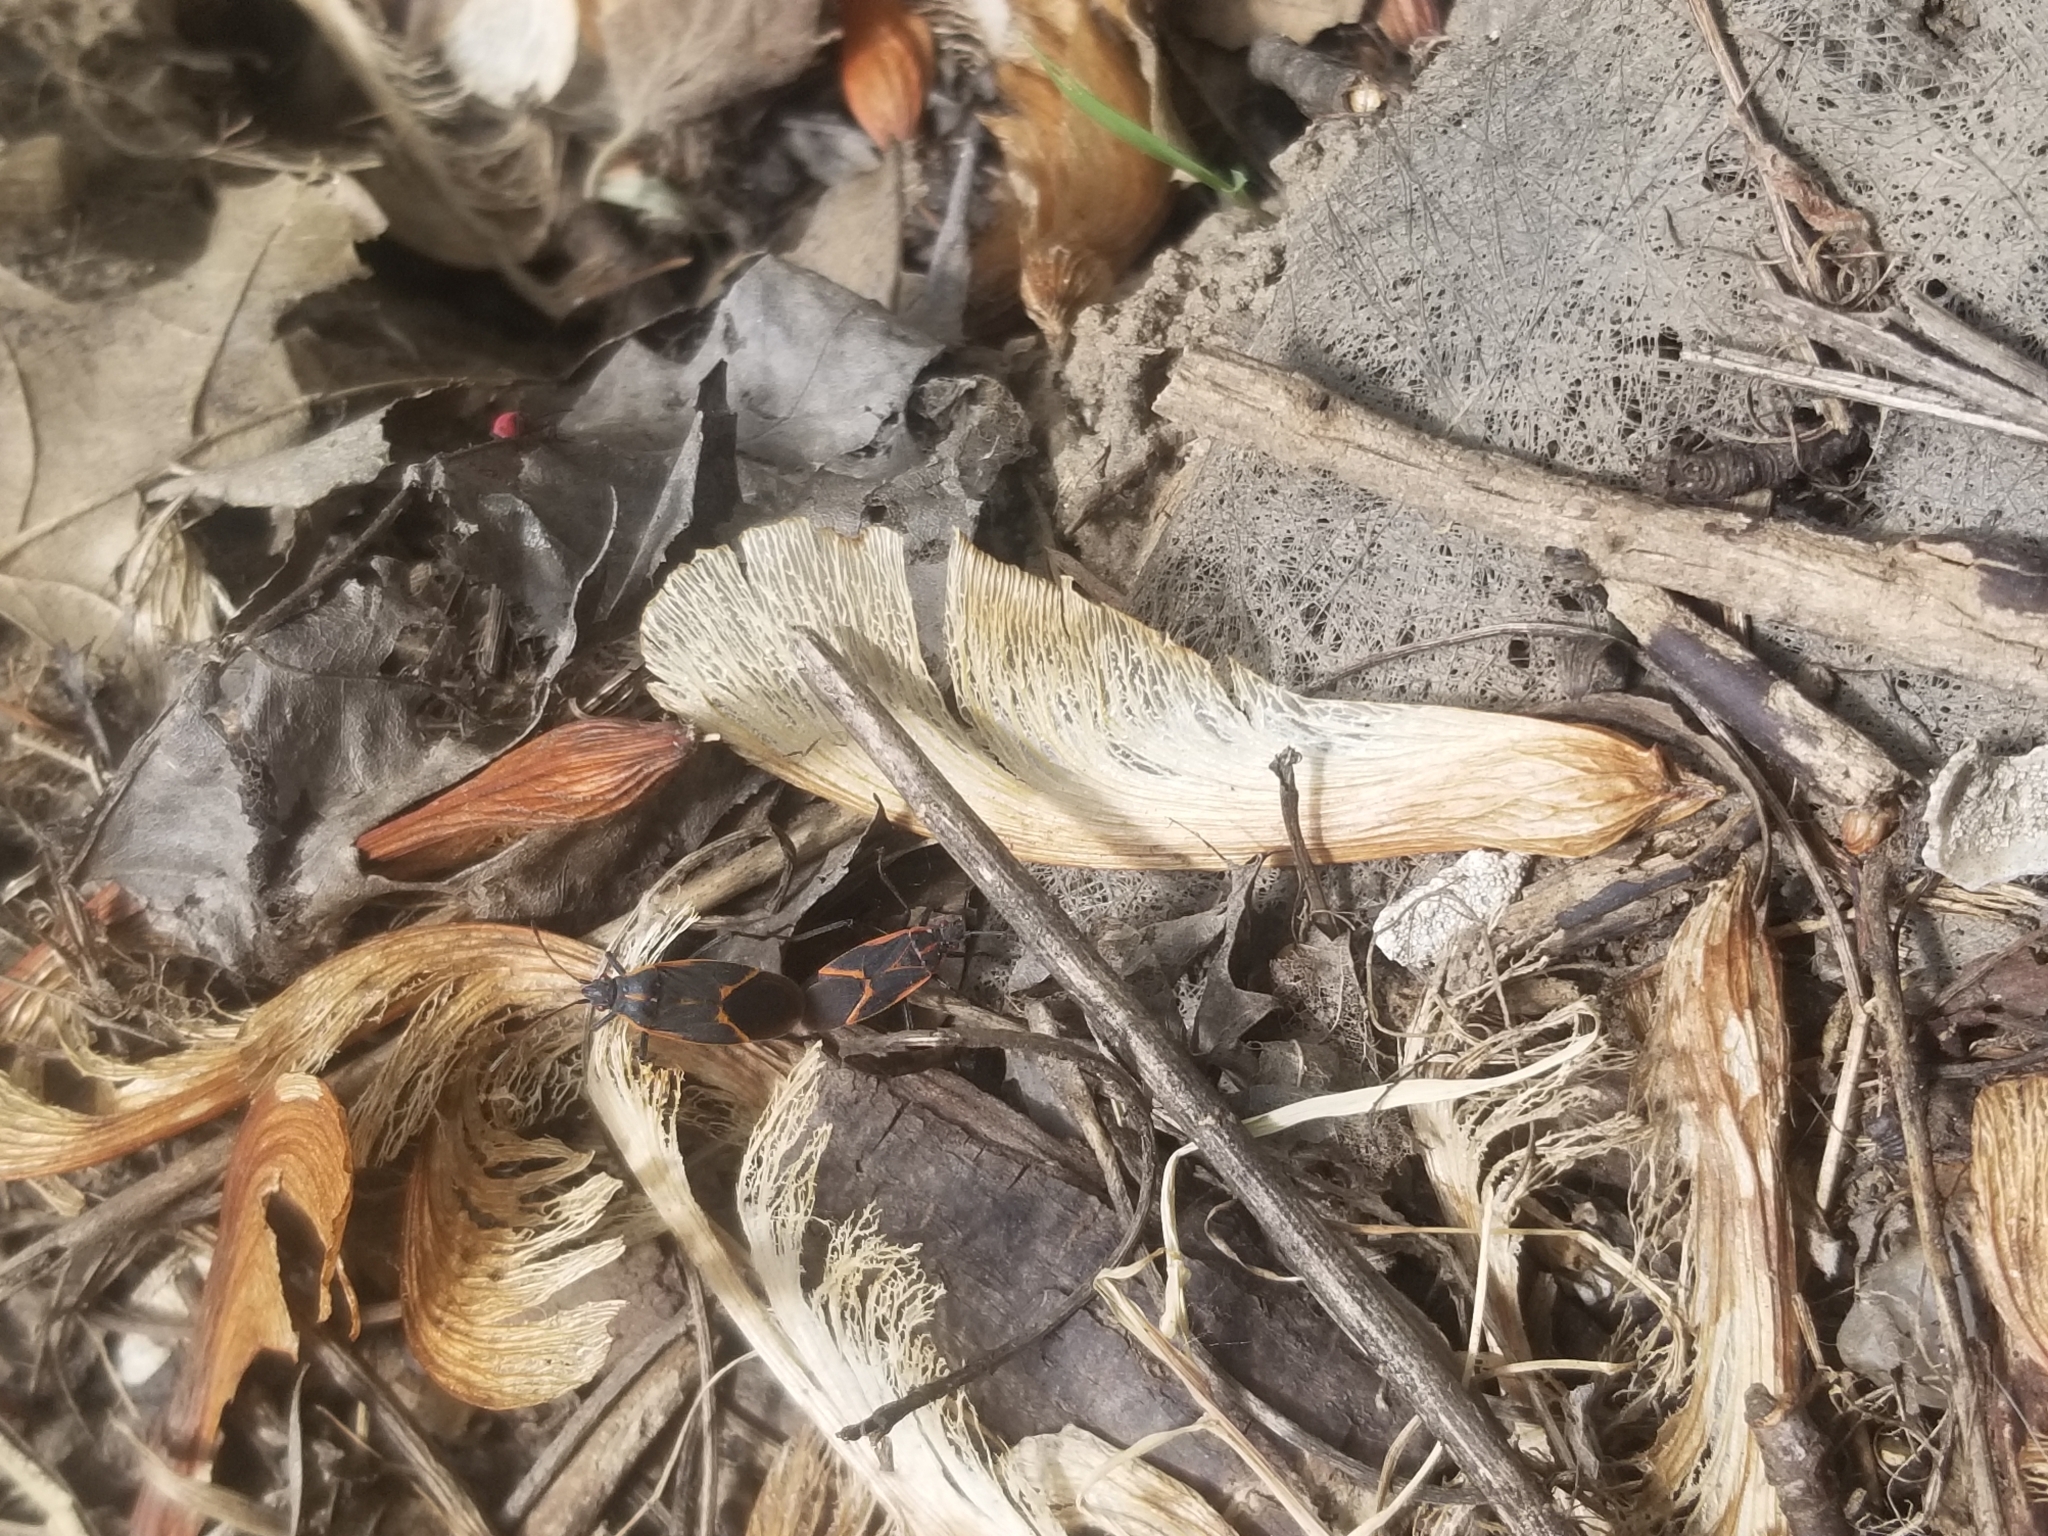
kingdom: Animalia
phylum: Arthropoda
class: Insecta
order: Hemiptera
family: Rhopalidae
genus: Boisea
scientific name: Boisea trivittata
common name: Boxelder bug
